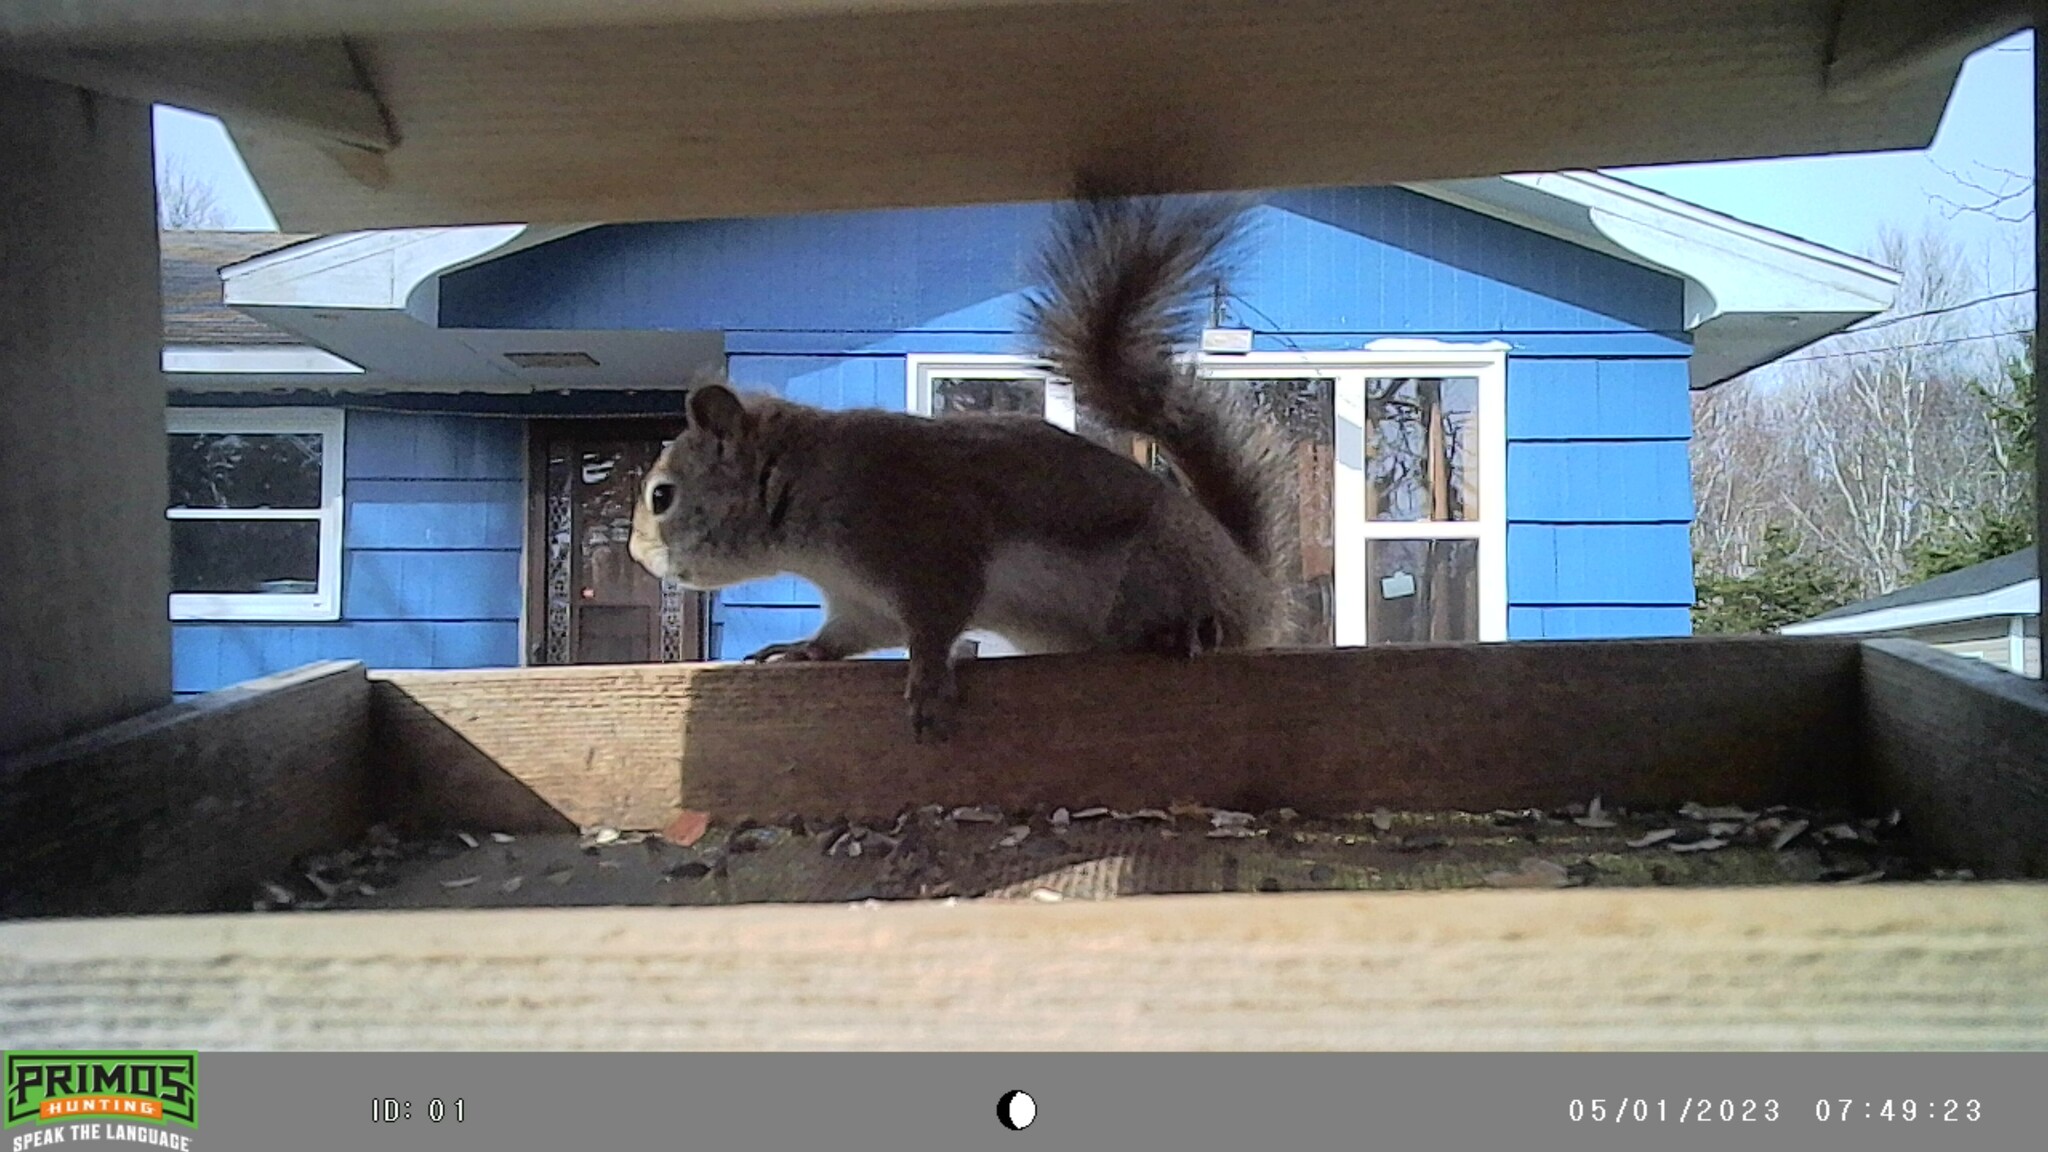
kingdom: Animalia
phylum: Chordata
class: Mammalia
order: Rodentia
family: Sciuridae
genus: Tamiasciurus
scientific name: Tamiasciurus hudsonicus
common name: Red squirrel
